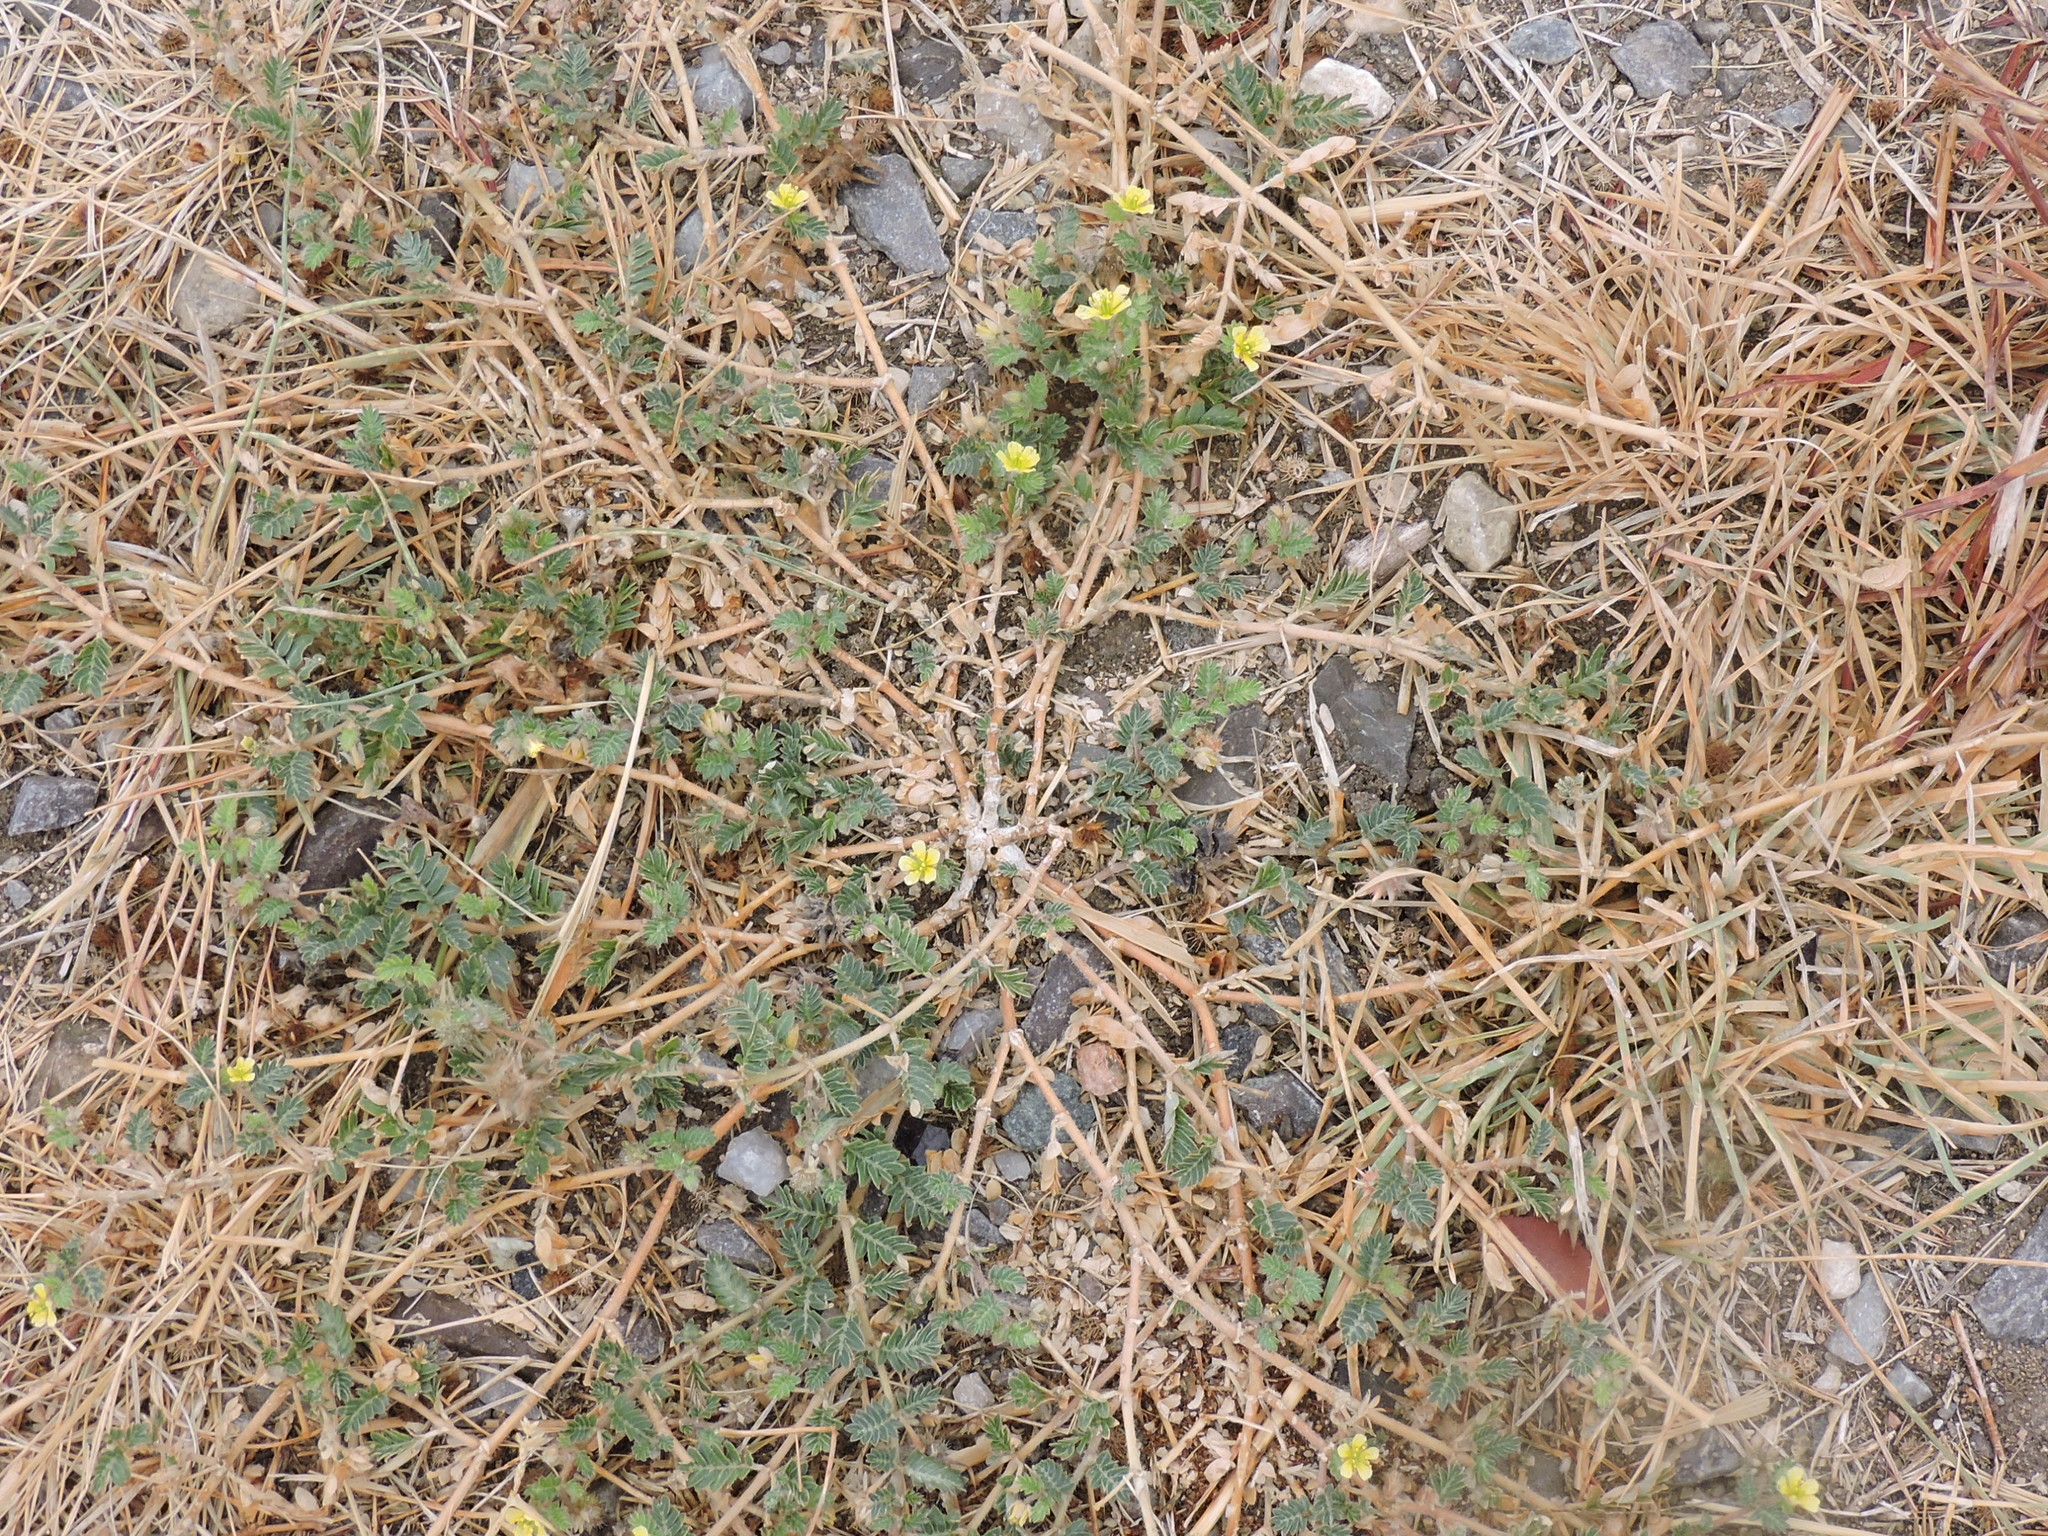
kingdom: Plantae
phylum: Tracheophyta
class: Magnoliopsida
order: Zygophyllales
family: Zygophyllaceae
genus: Tribulus
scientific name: Tribulus terrestris
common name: Puncturevine
